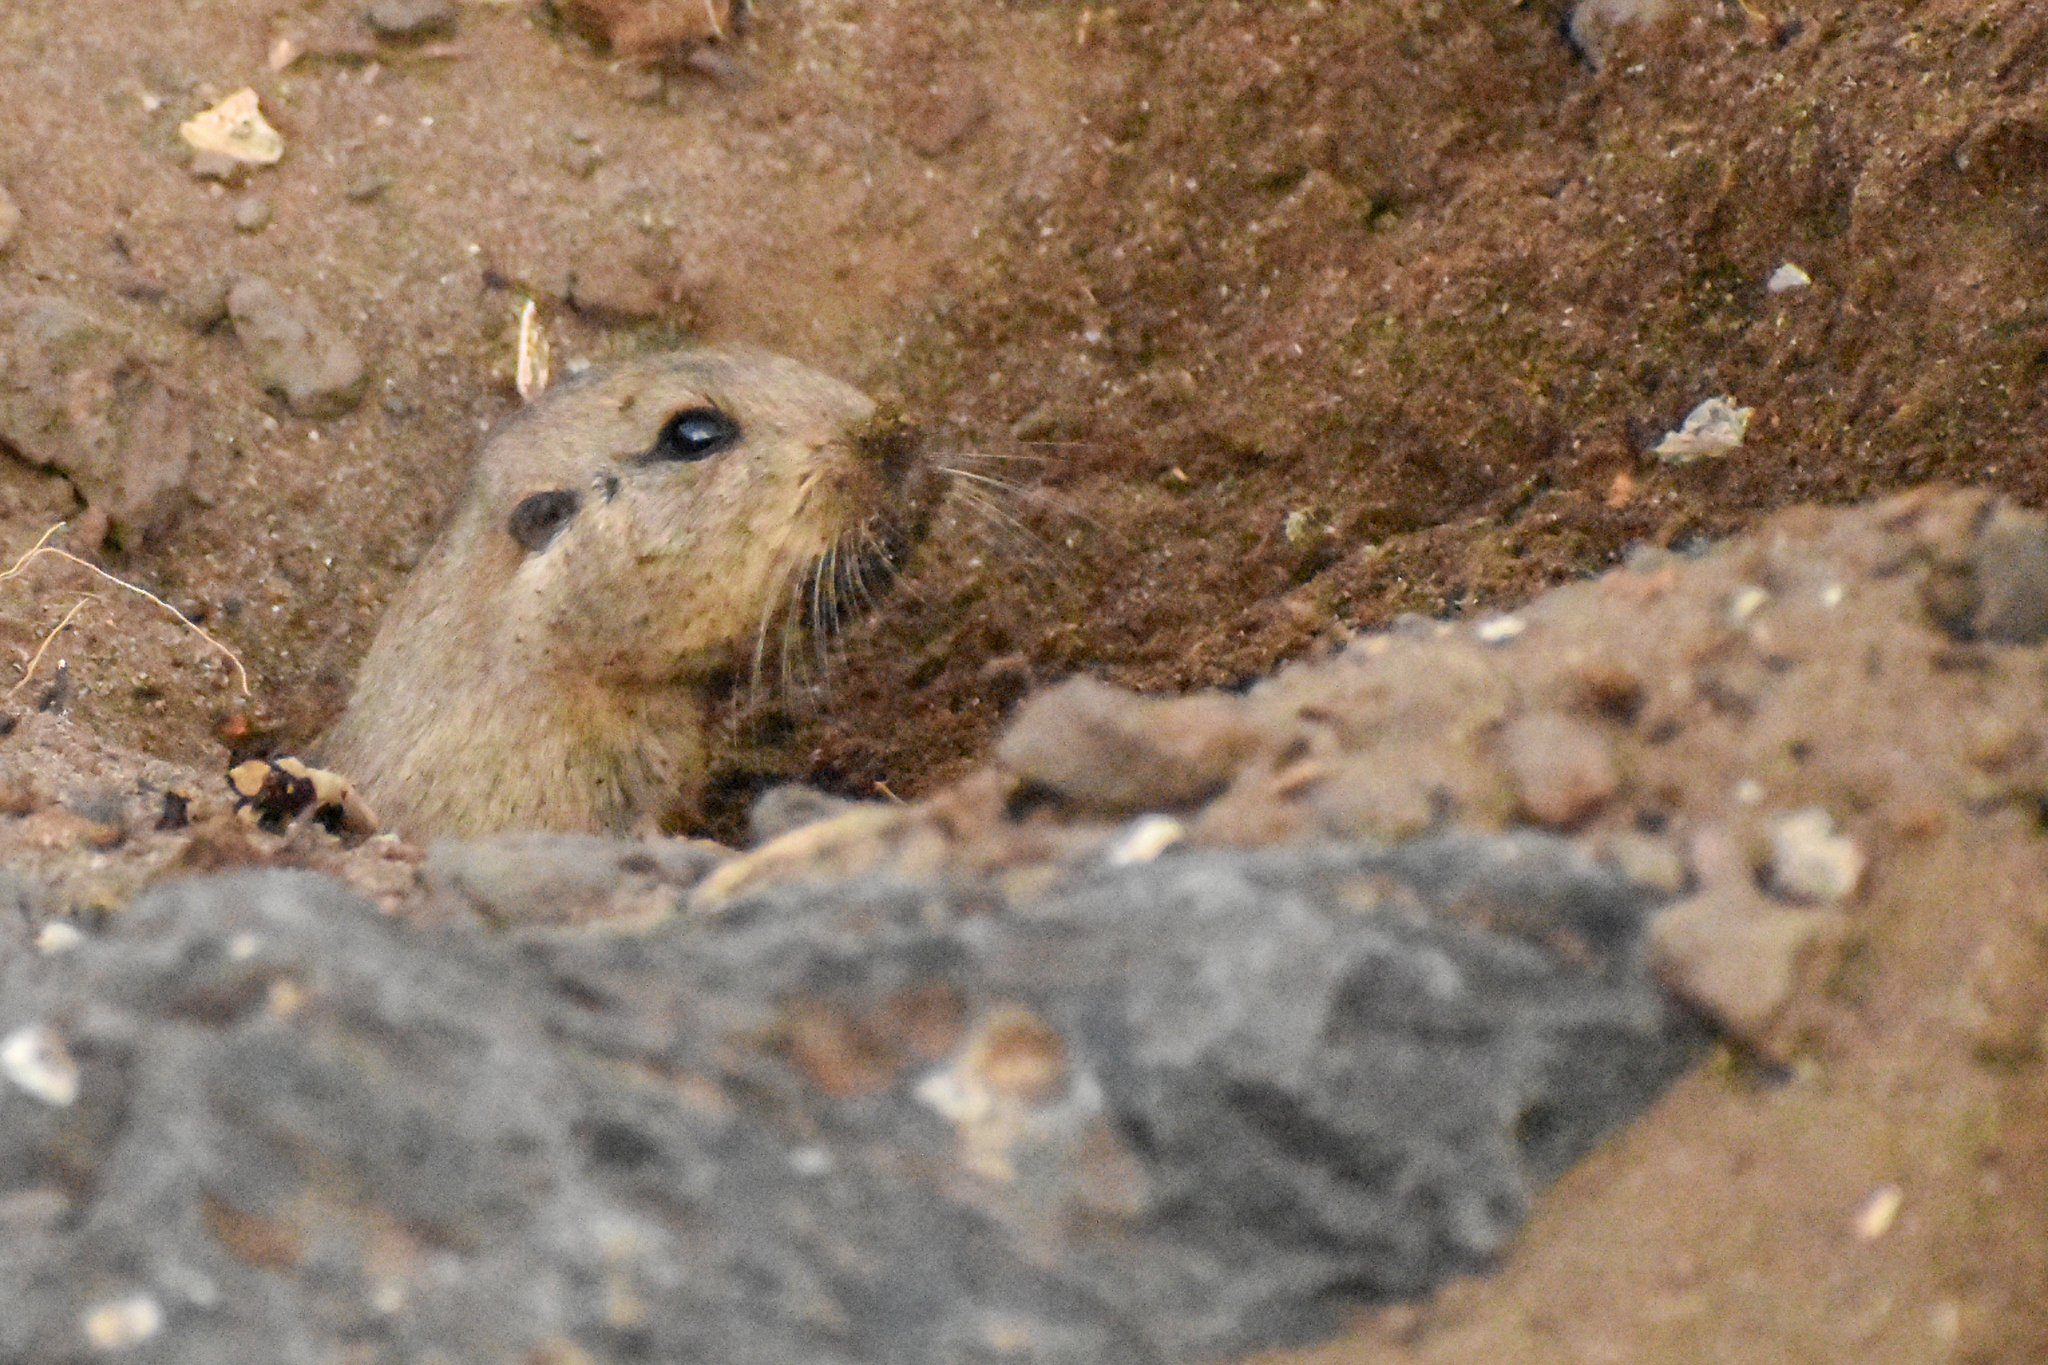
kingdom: Animalia
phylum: Chordata
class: Mammalia
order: Rodentia
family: Ctenomyidae
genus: Ctenomys
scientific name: Ctenomys magellanicus
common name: Magellanic tuco-tuco
